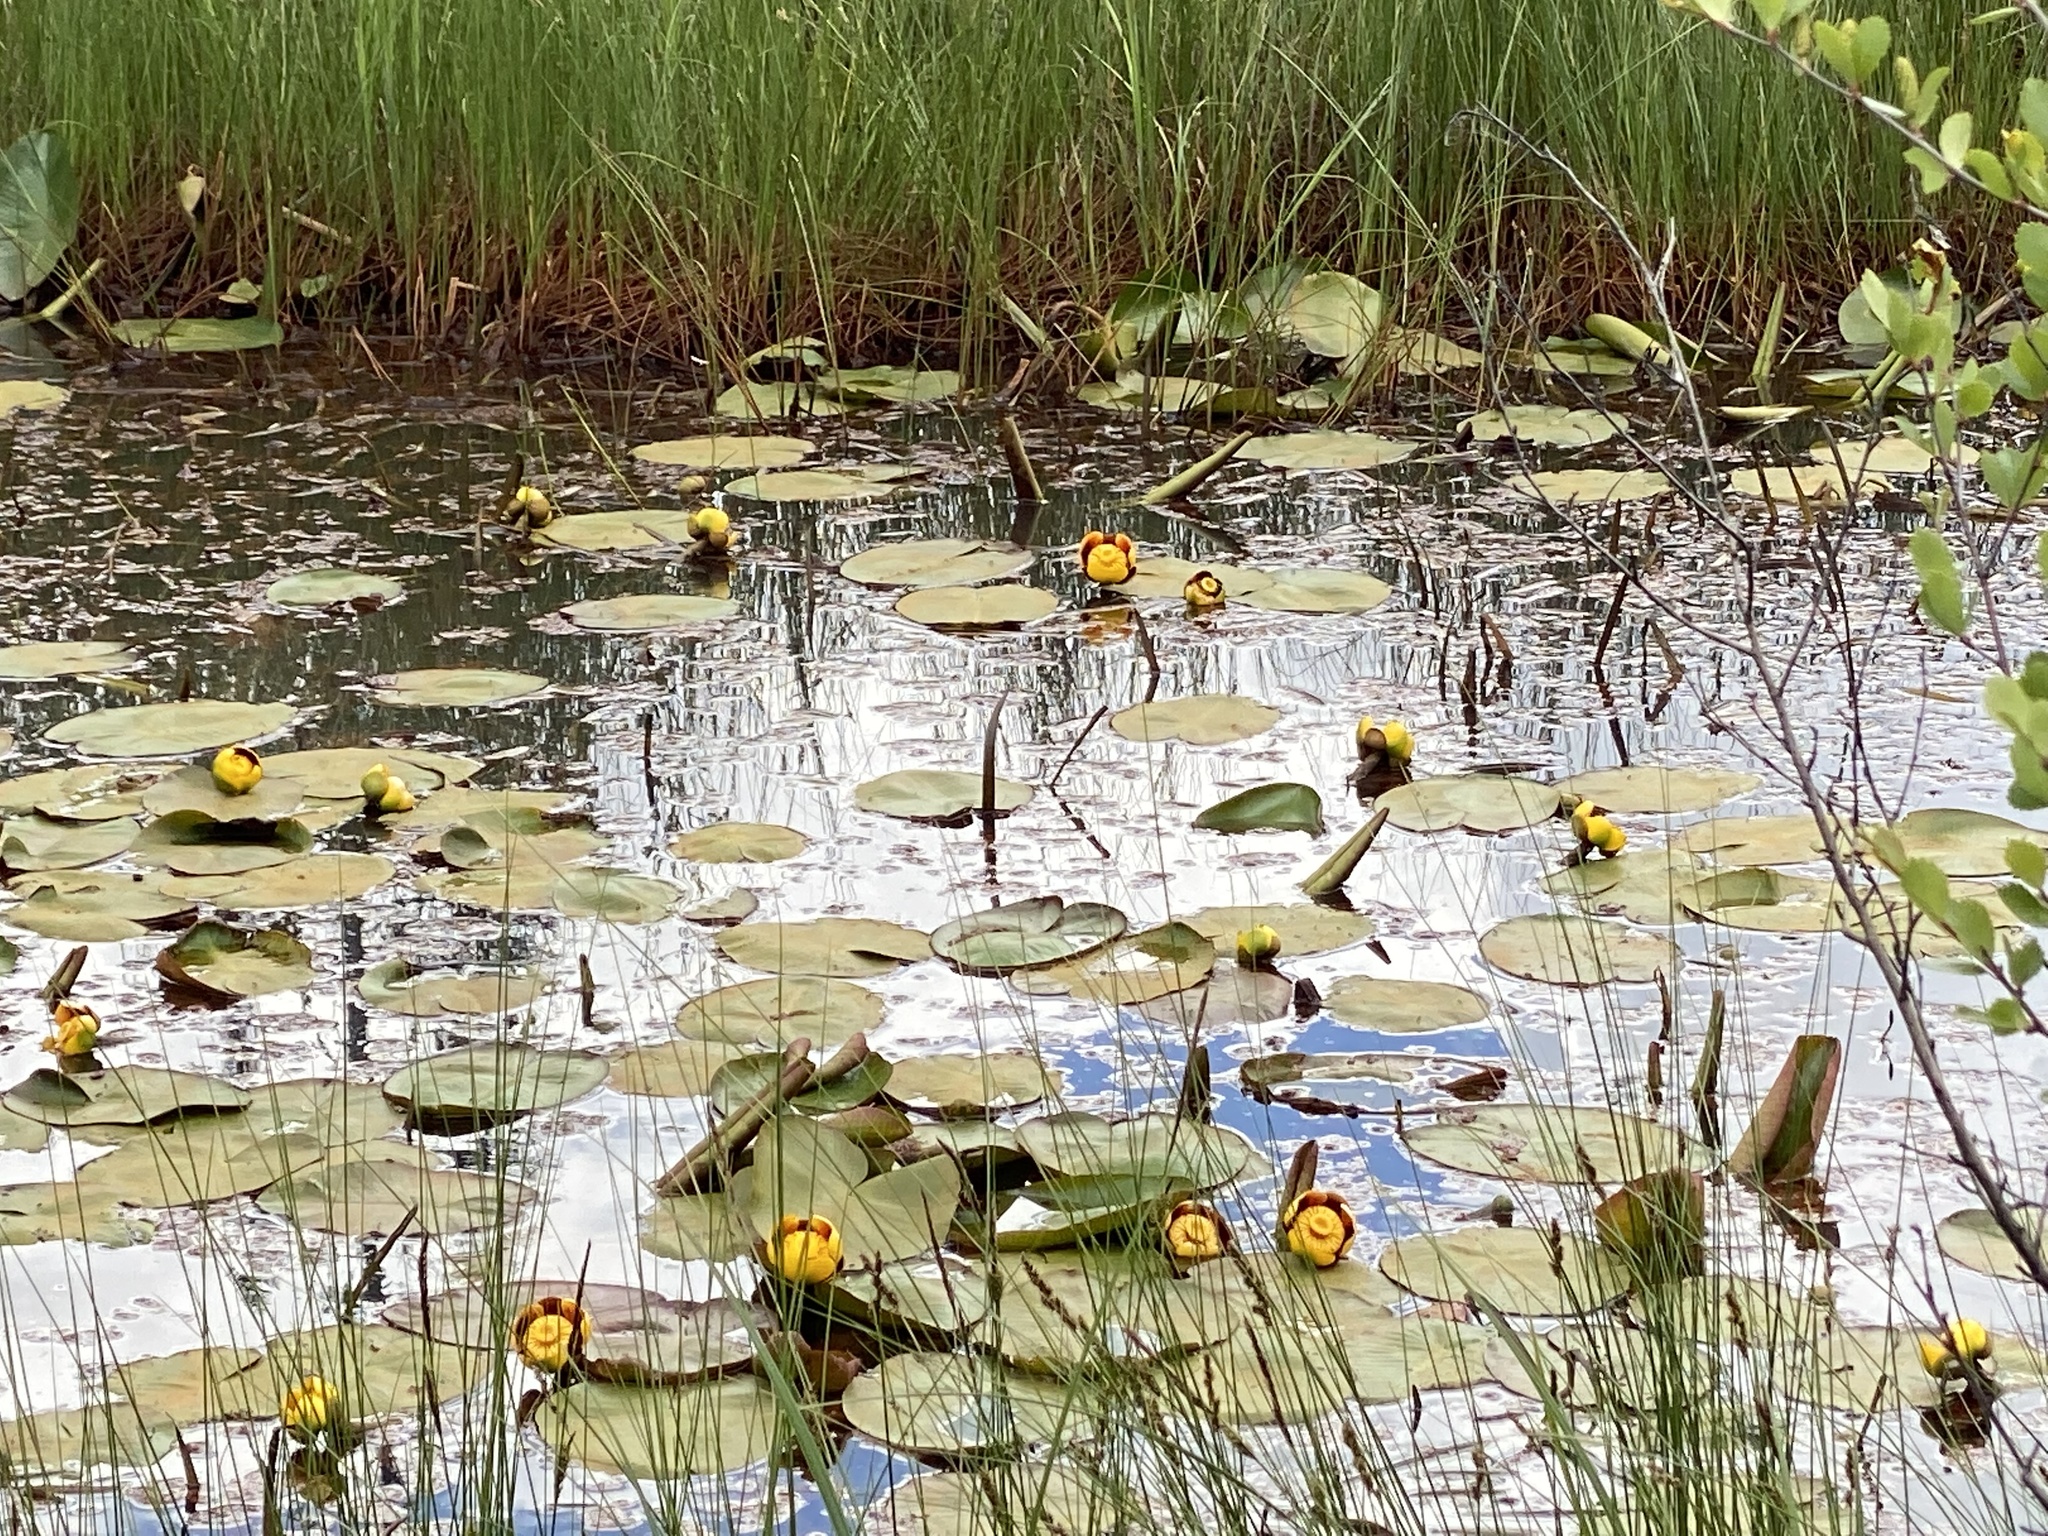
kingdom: Plantae
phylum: Tracheophyta
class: Magnoliopsida
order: Nymphaeales
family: Nymphaeaceae
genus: Nuphar
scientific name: Nuphar variegata
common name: Beaver-root
